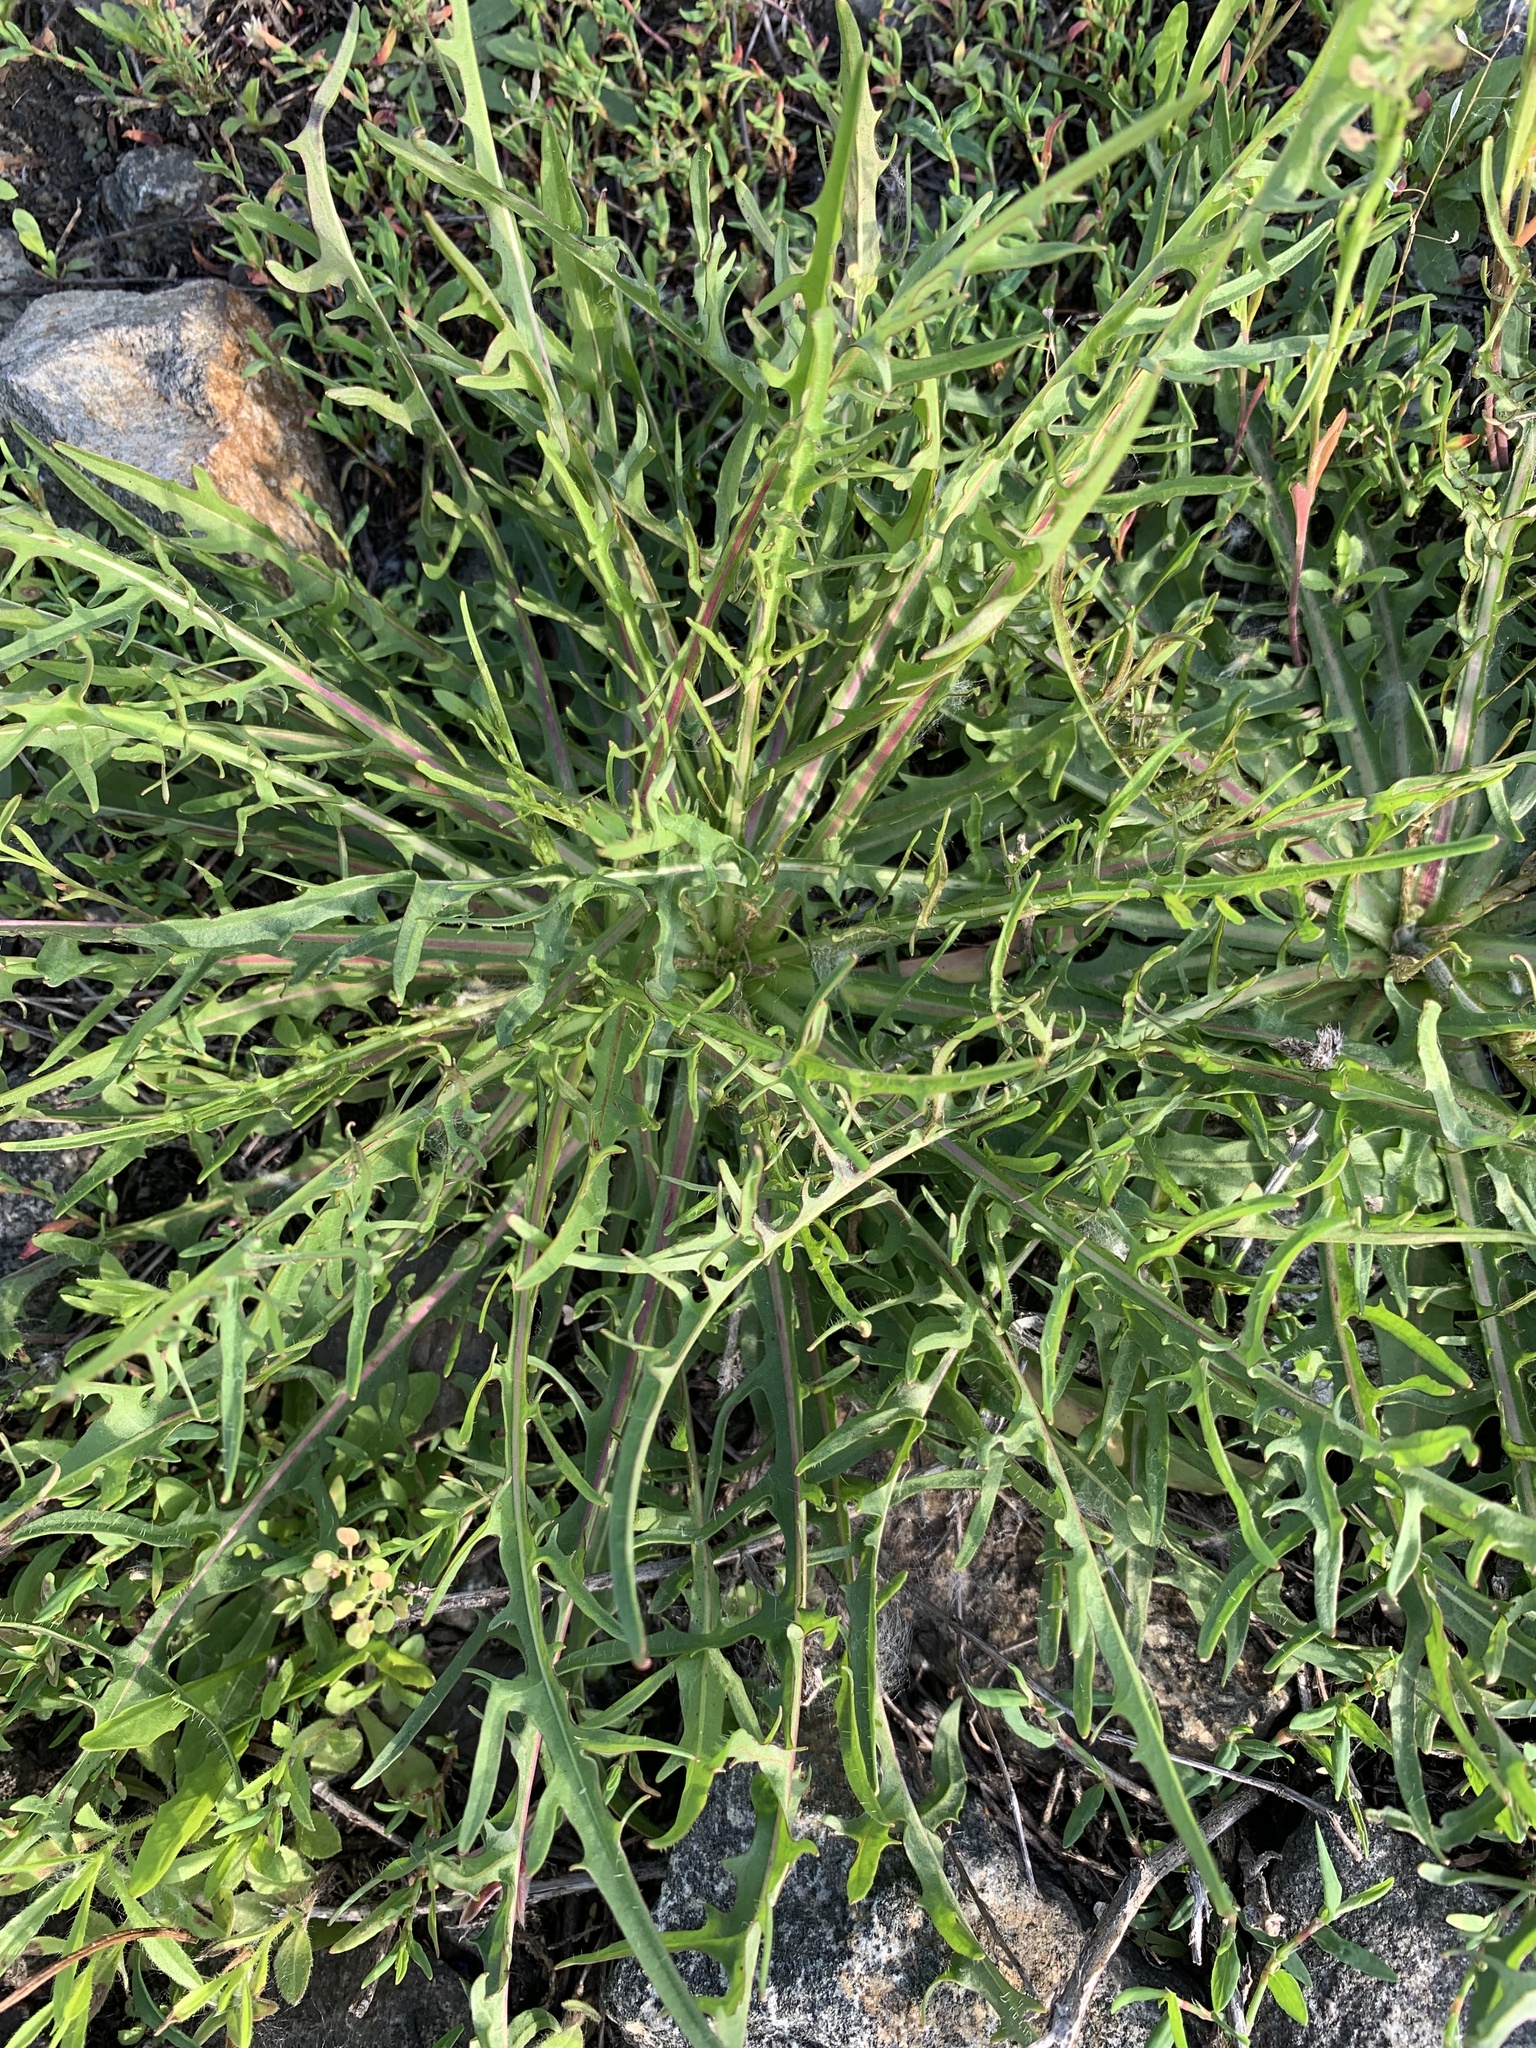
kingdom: Plantae
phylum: Tracheophyta
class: Magnoliopsida
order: Asterales
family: Asteraceae
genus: Taraxacum
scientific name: Taraxacum scariosum
